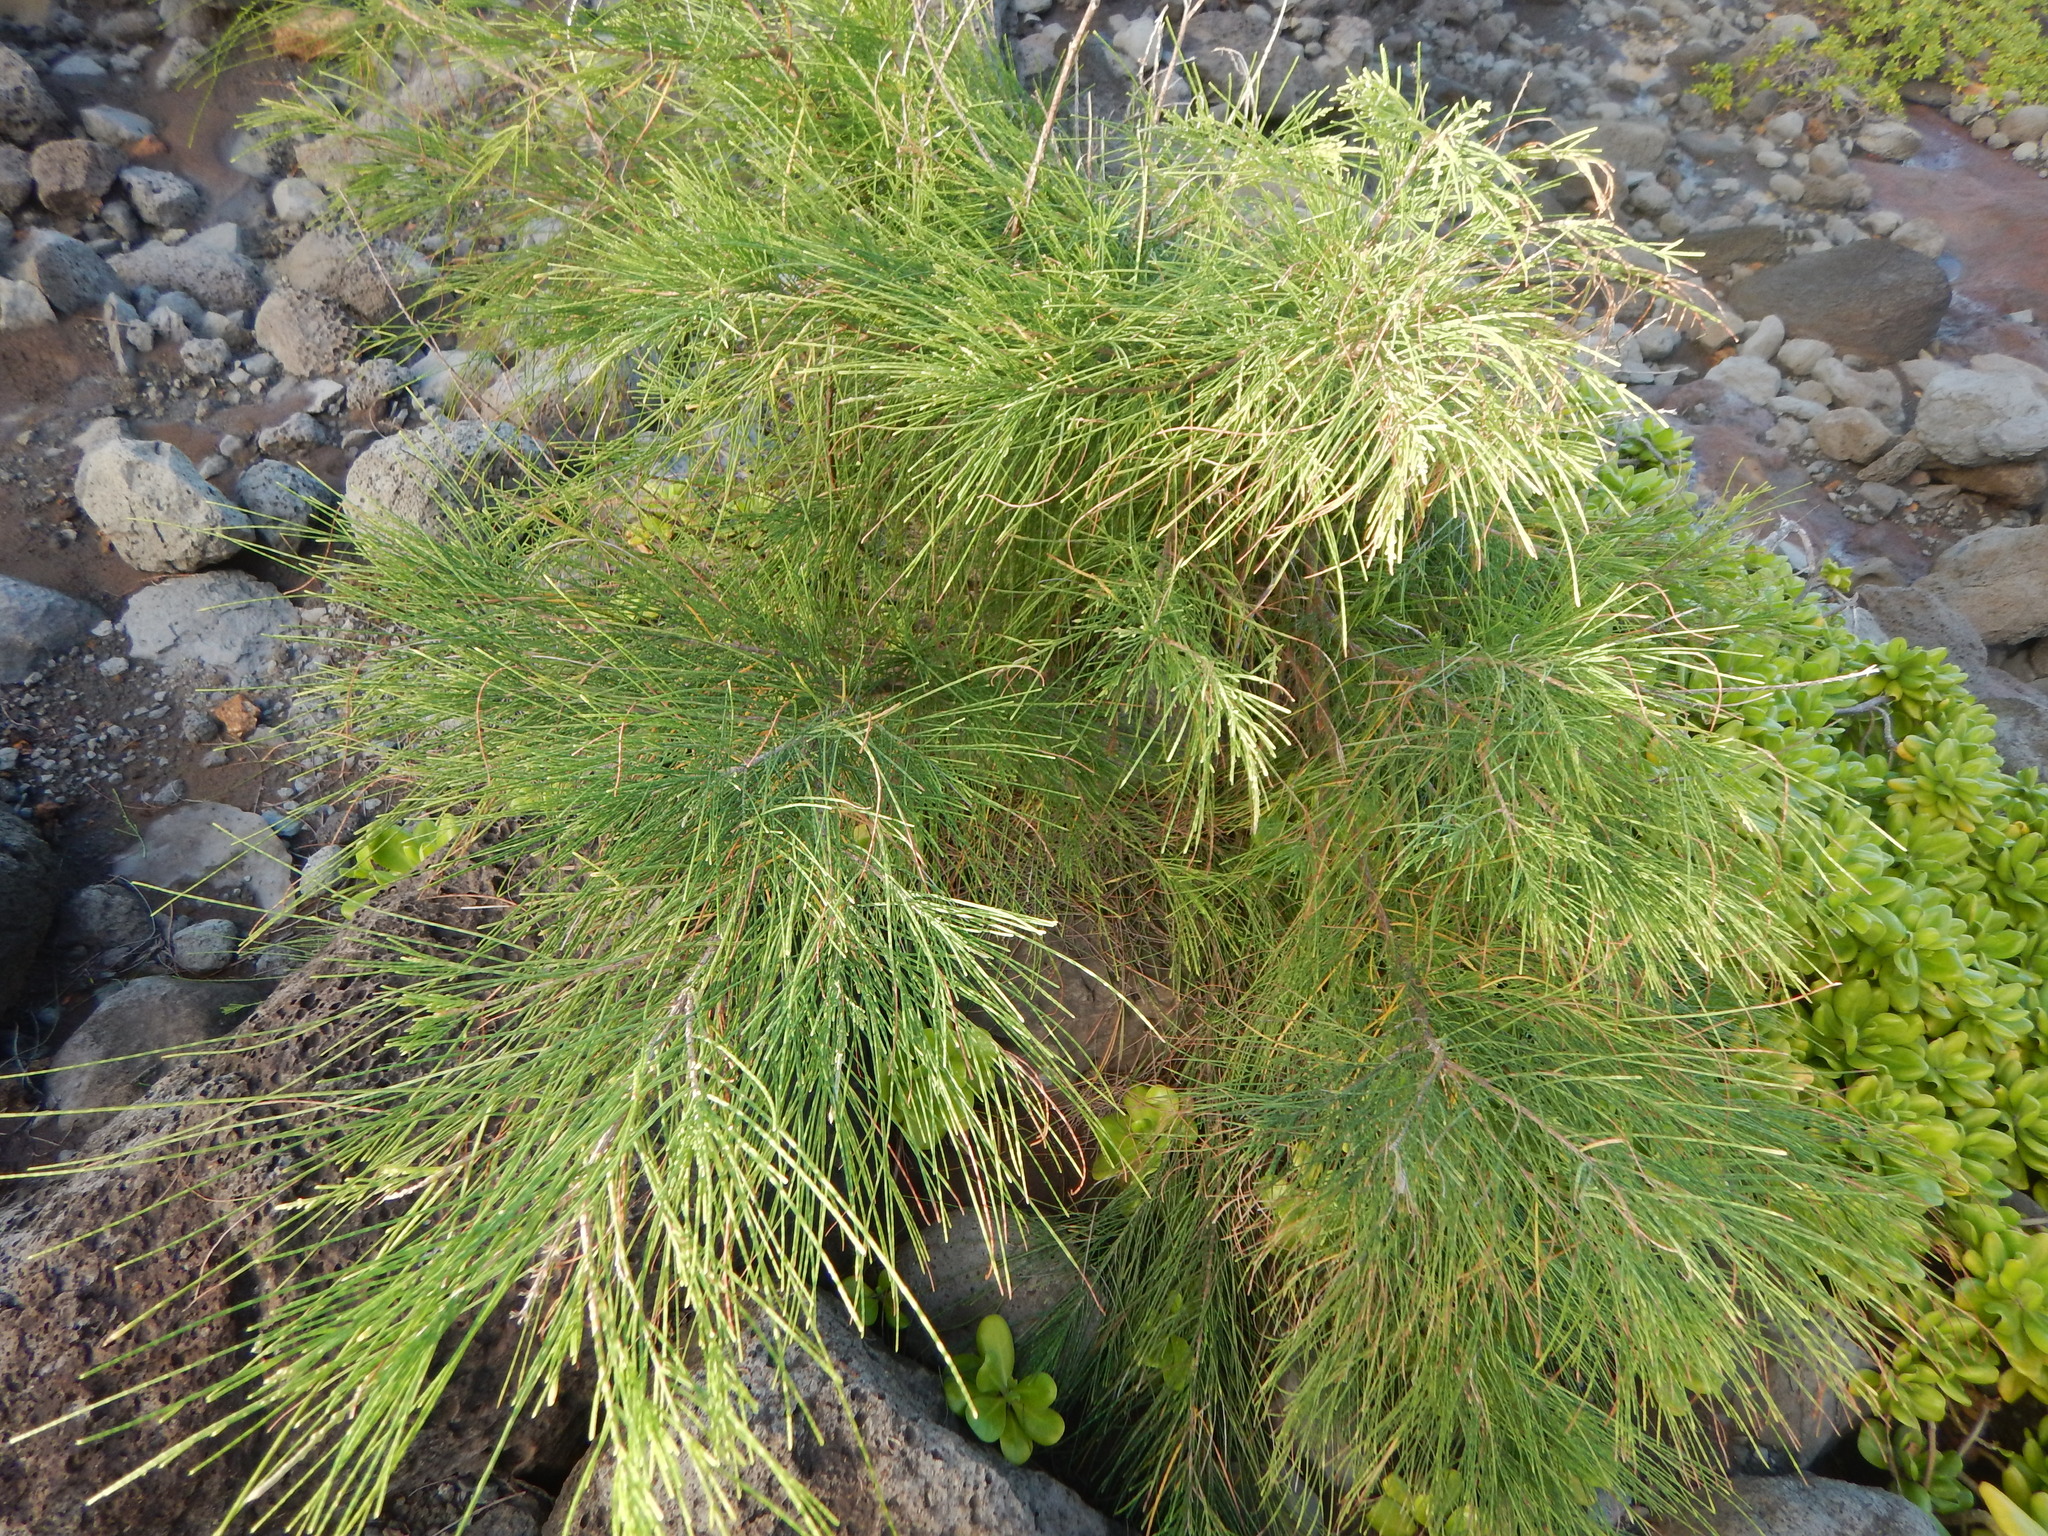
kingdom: Plantae
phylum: Tracheophyta
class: Magnoliopsida
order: Fagales
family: Casuarinaceae
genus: Casuarina
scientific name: Casuarina equisetifolia
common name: Beach sheoak
